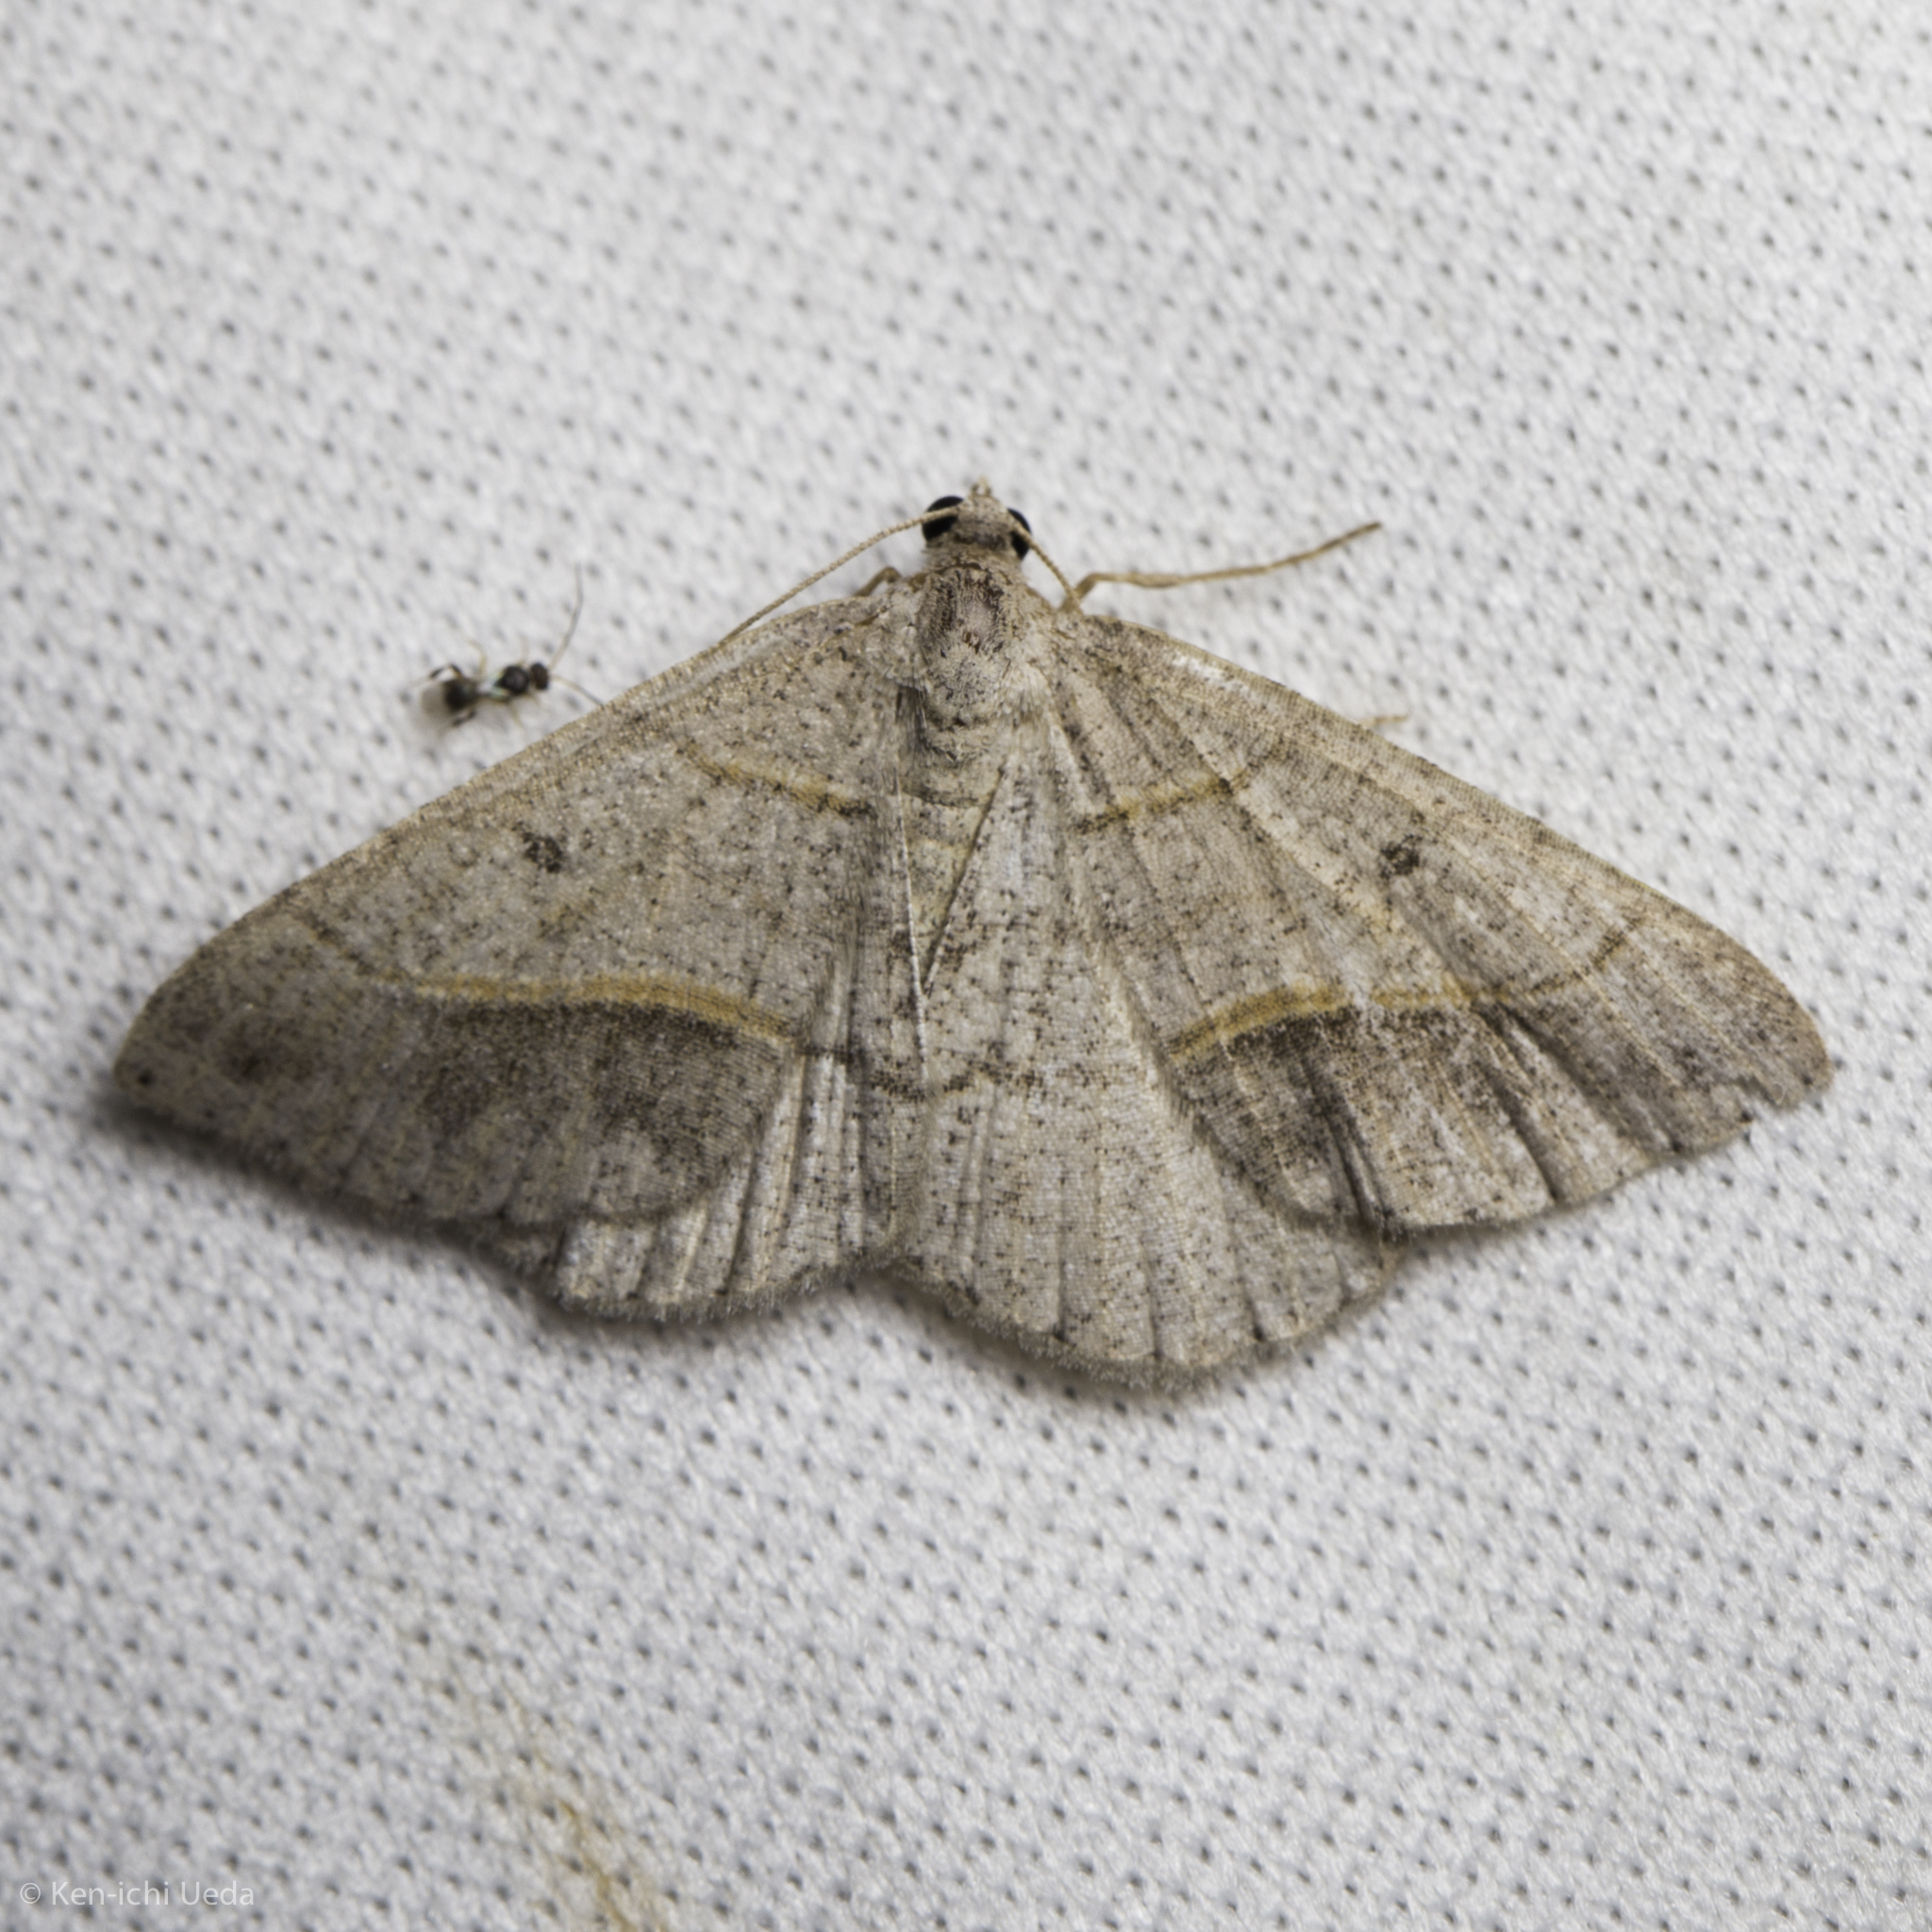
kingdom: Animalia
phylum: Arthropoda
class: Insecta
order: Lepidoptera
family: Geometridae
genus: Digrammia
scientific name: Digrammia neptaria
